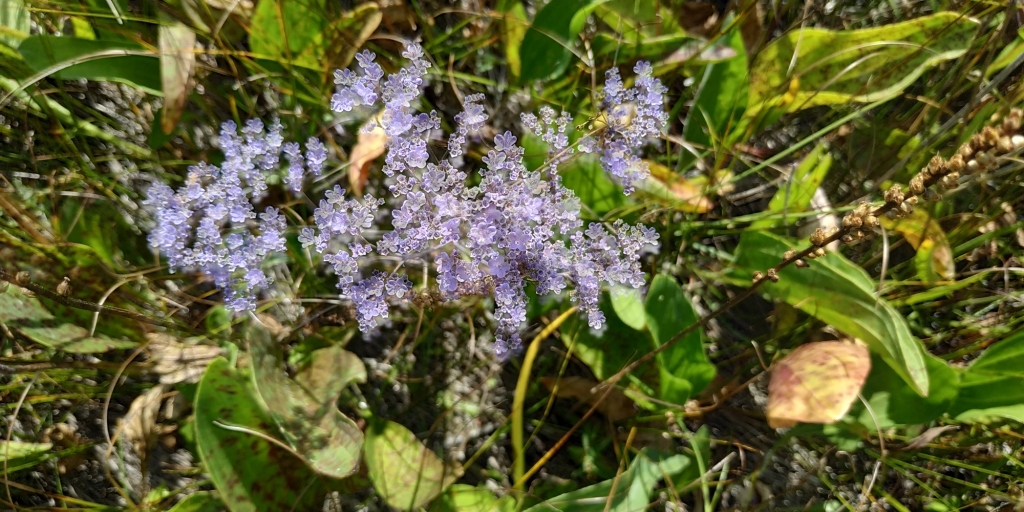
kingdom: Plantae
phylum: Tracheophyta
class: Magnoliopsida
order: Caryophyllales
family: Plumbaginaceae
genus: Limonium
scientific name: Limonium gmelini
